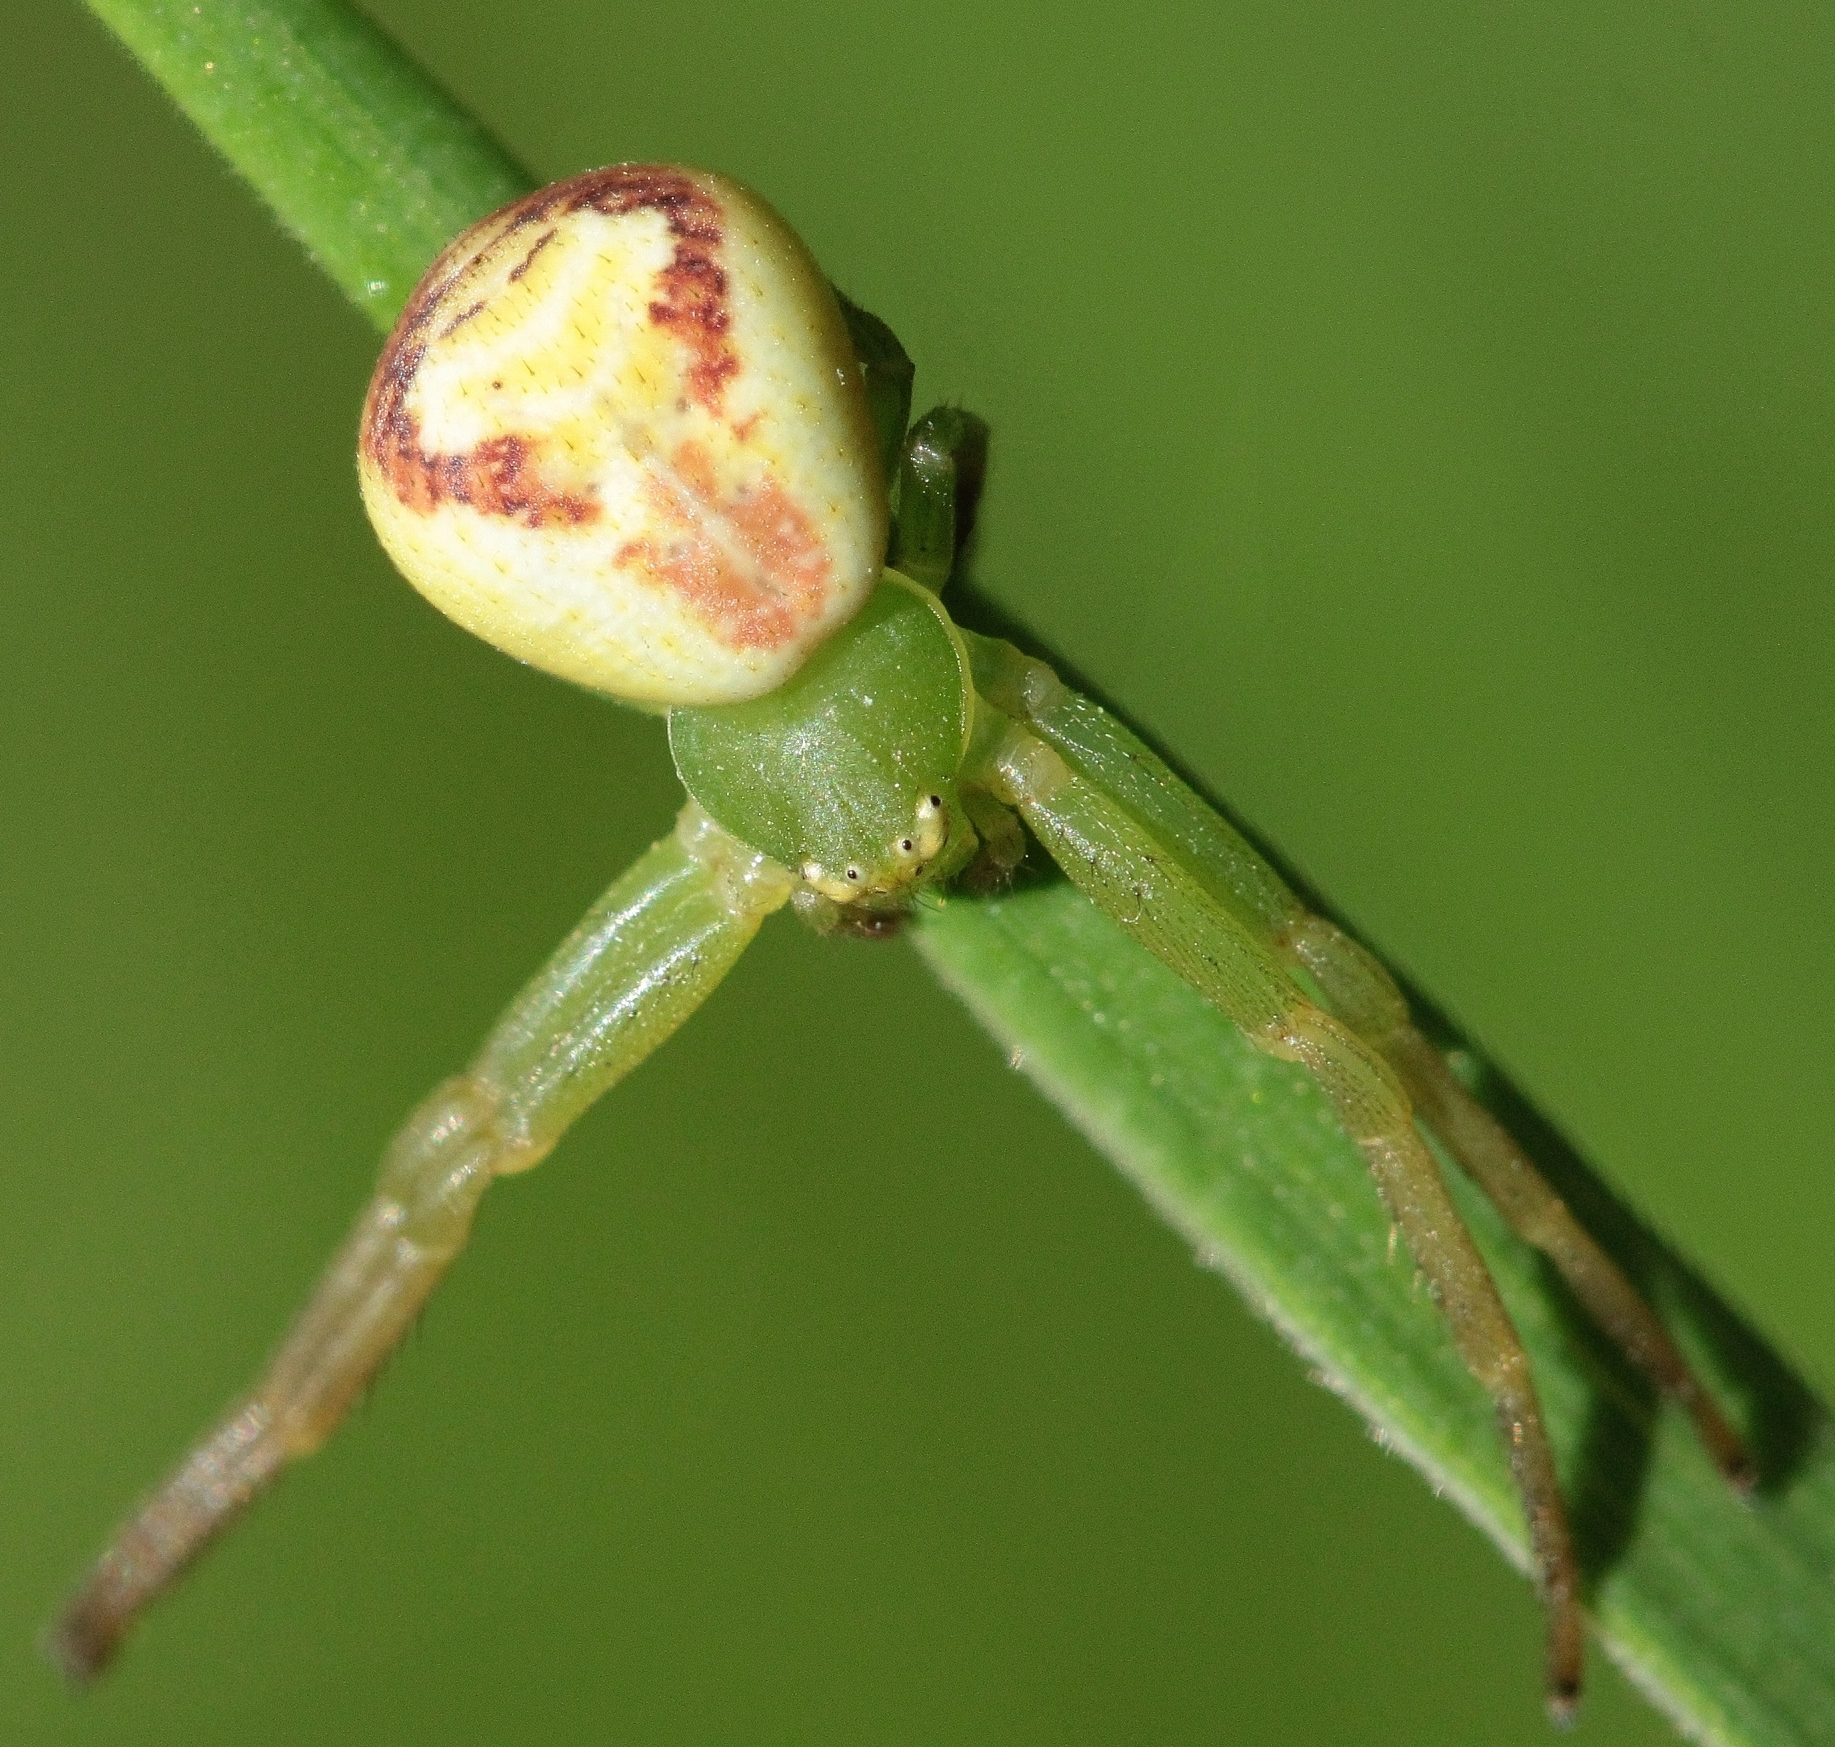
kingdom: Animalia
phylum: Arthropoda
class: Arachnida
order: Araneae
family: Thomisidae
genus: Ebrechtella
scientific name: Ebrechtella tricuspidata
